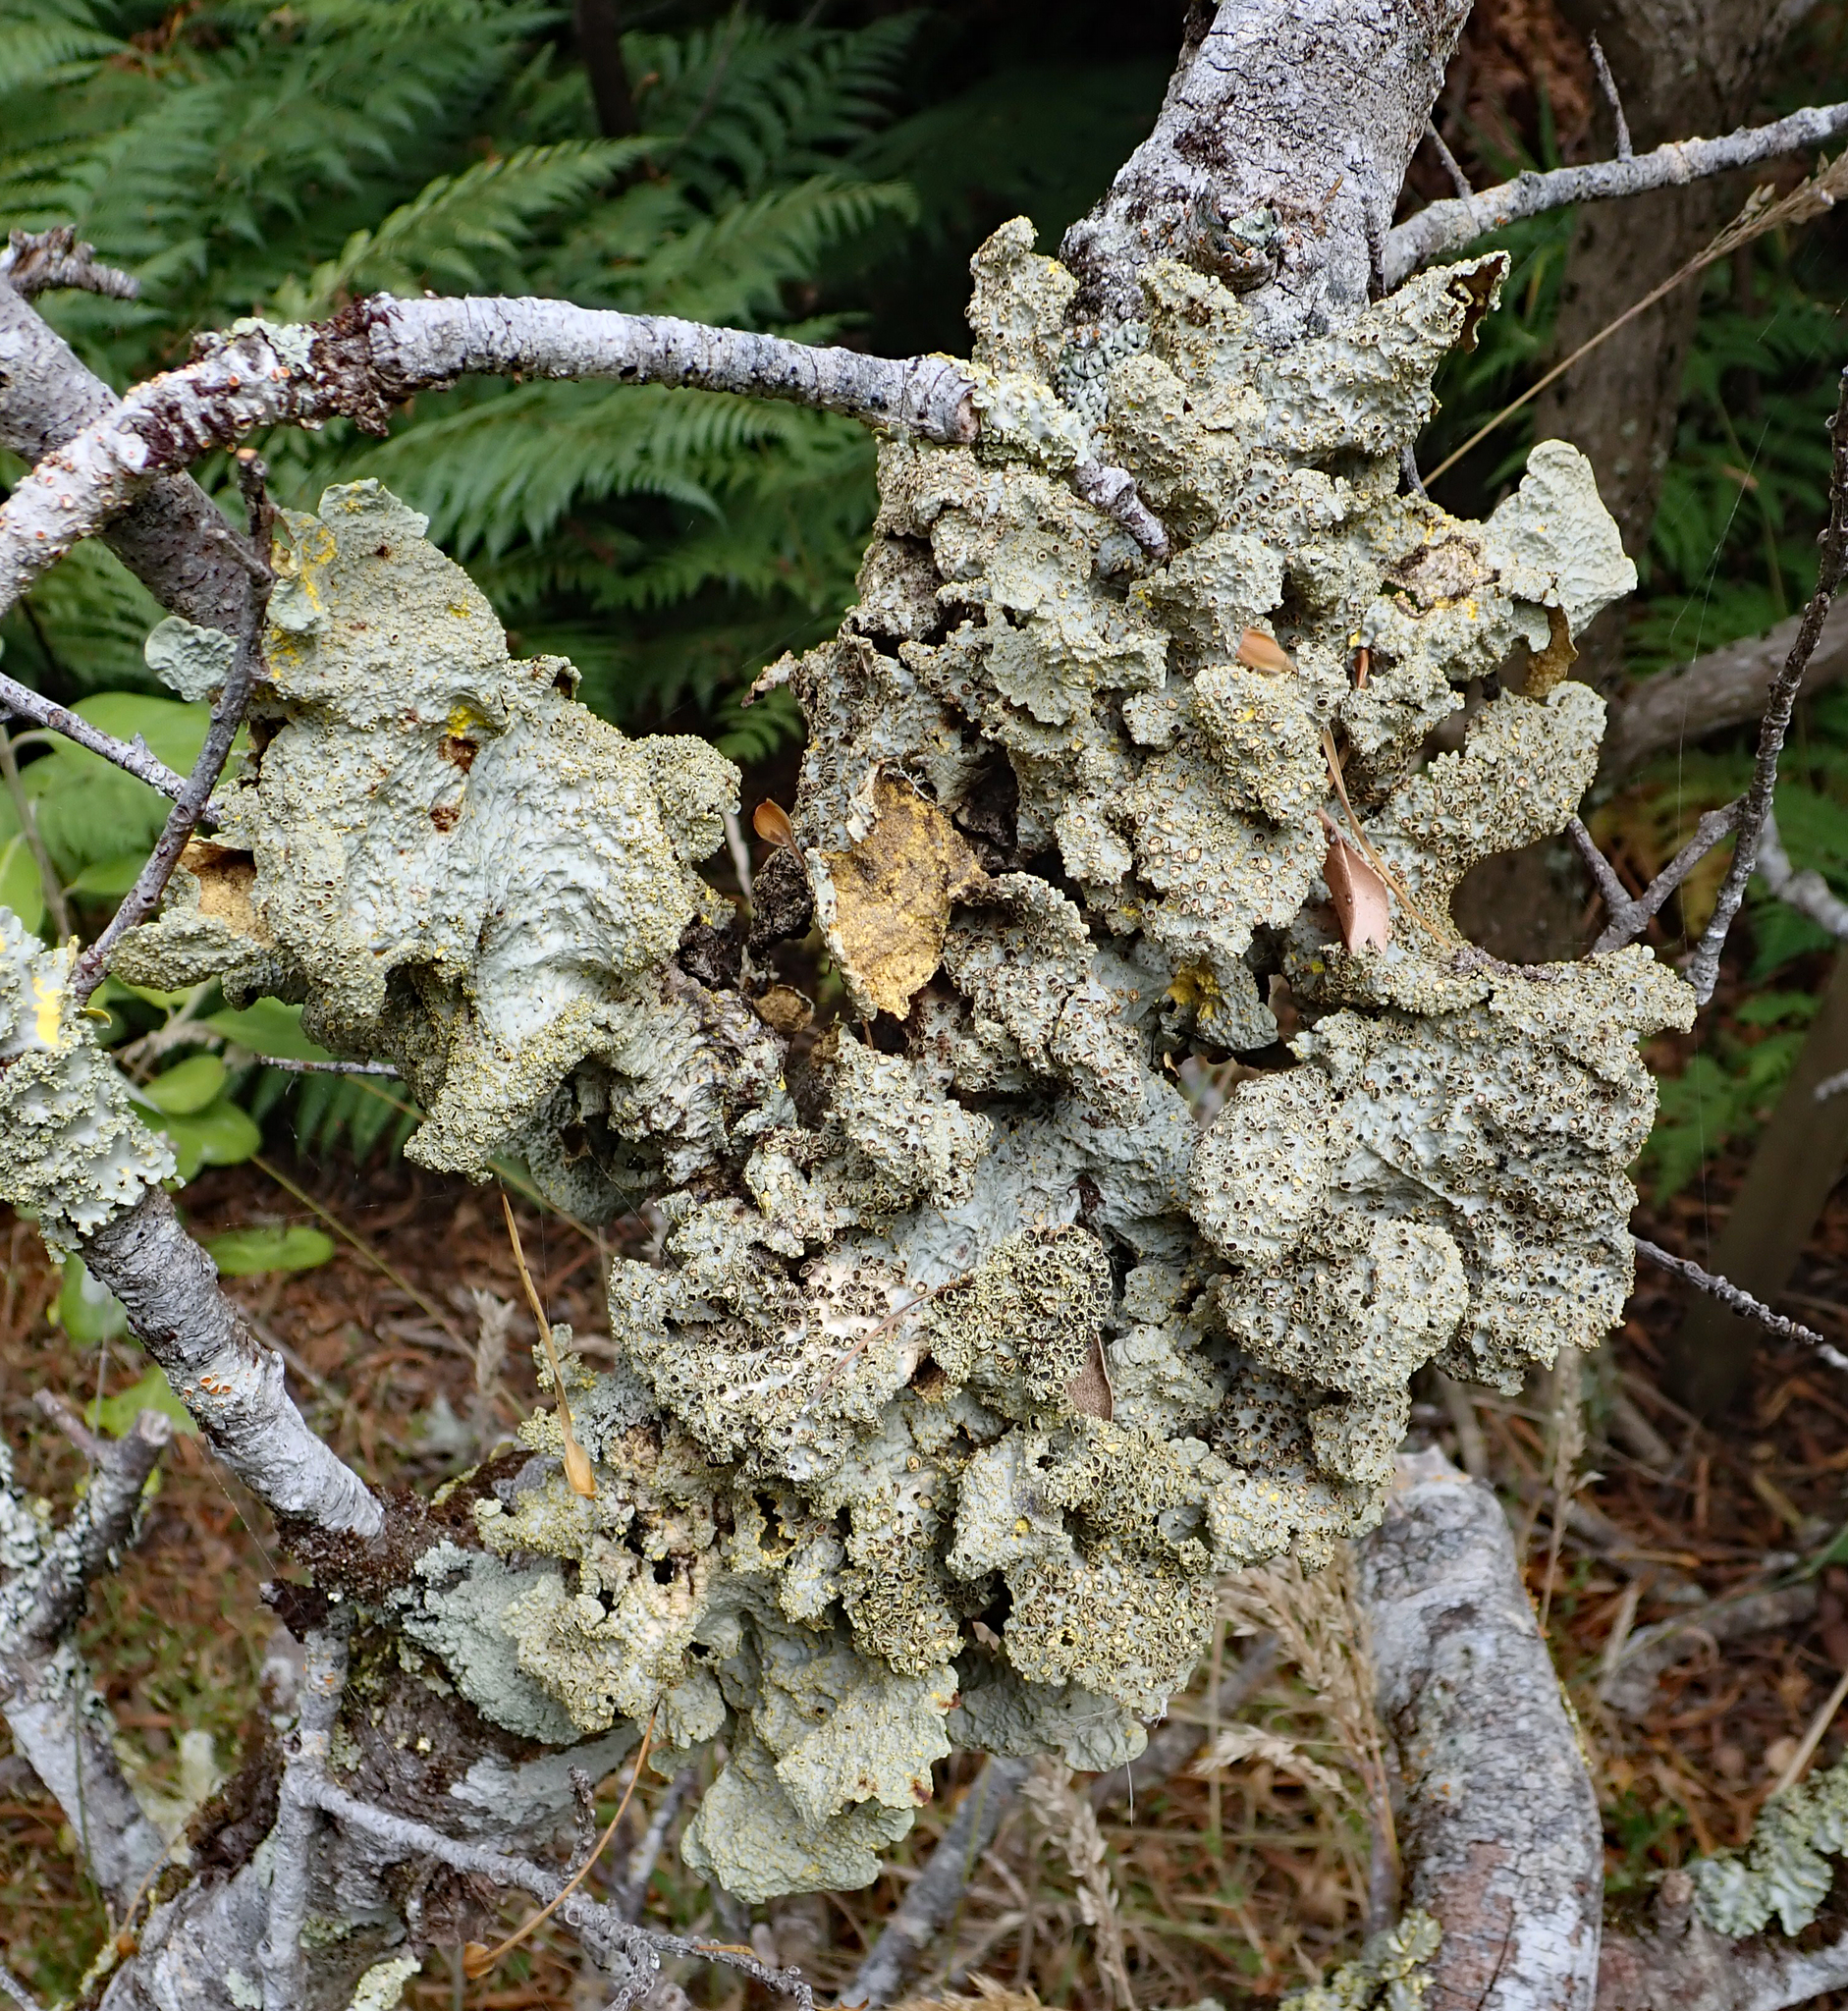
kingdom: Fungi
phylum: Ascomycota
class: Lecanoromycetes
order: Peltigerales
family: Lobariaceae
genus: Yarrumia
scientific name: Yarrumia coronata
